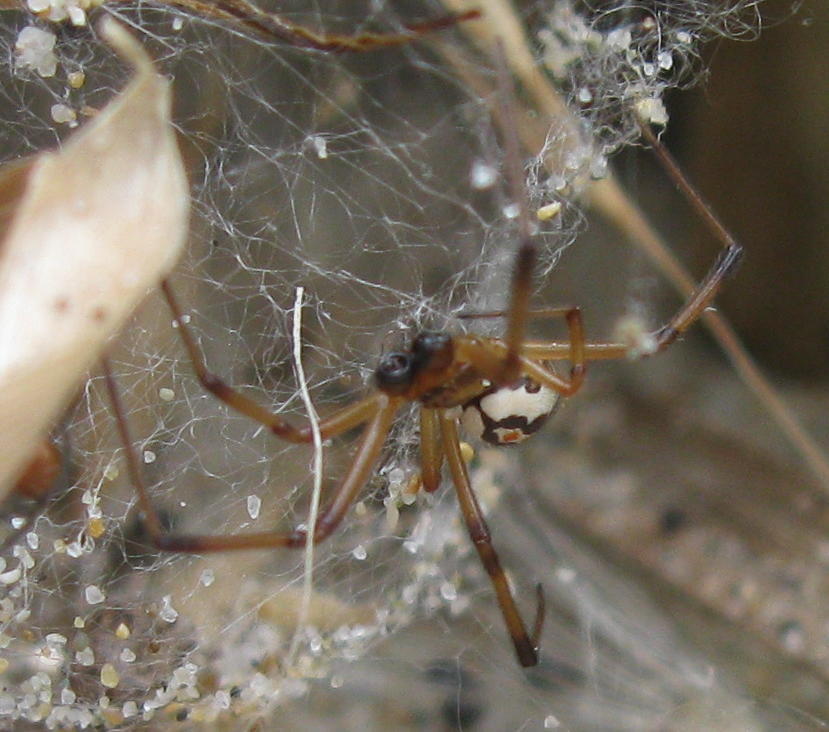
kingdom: Animalia
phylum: Arthropoda
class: Arachnida
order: Araneae
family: Theridiidae
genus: Latrodectus
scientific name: Latrodectus katipo
